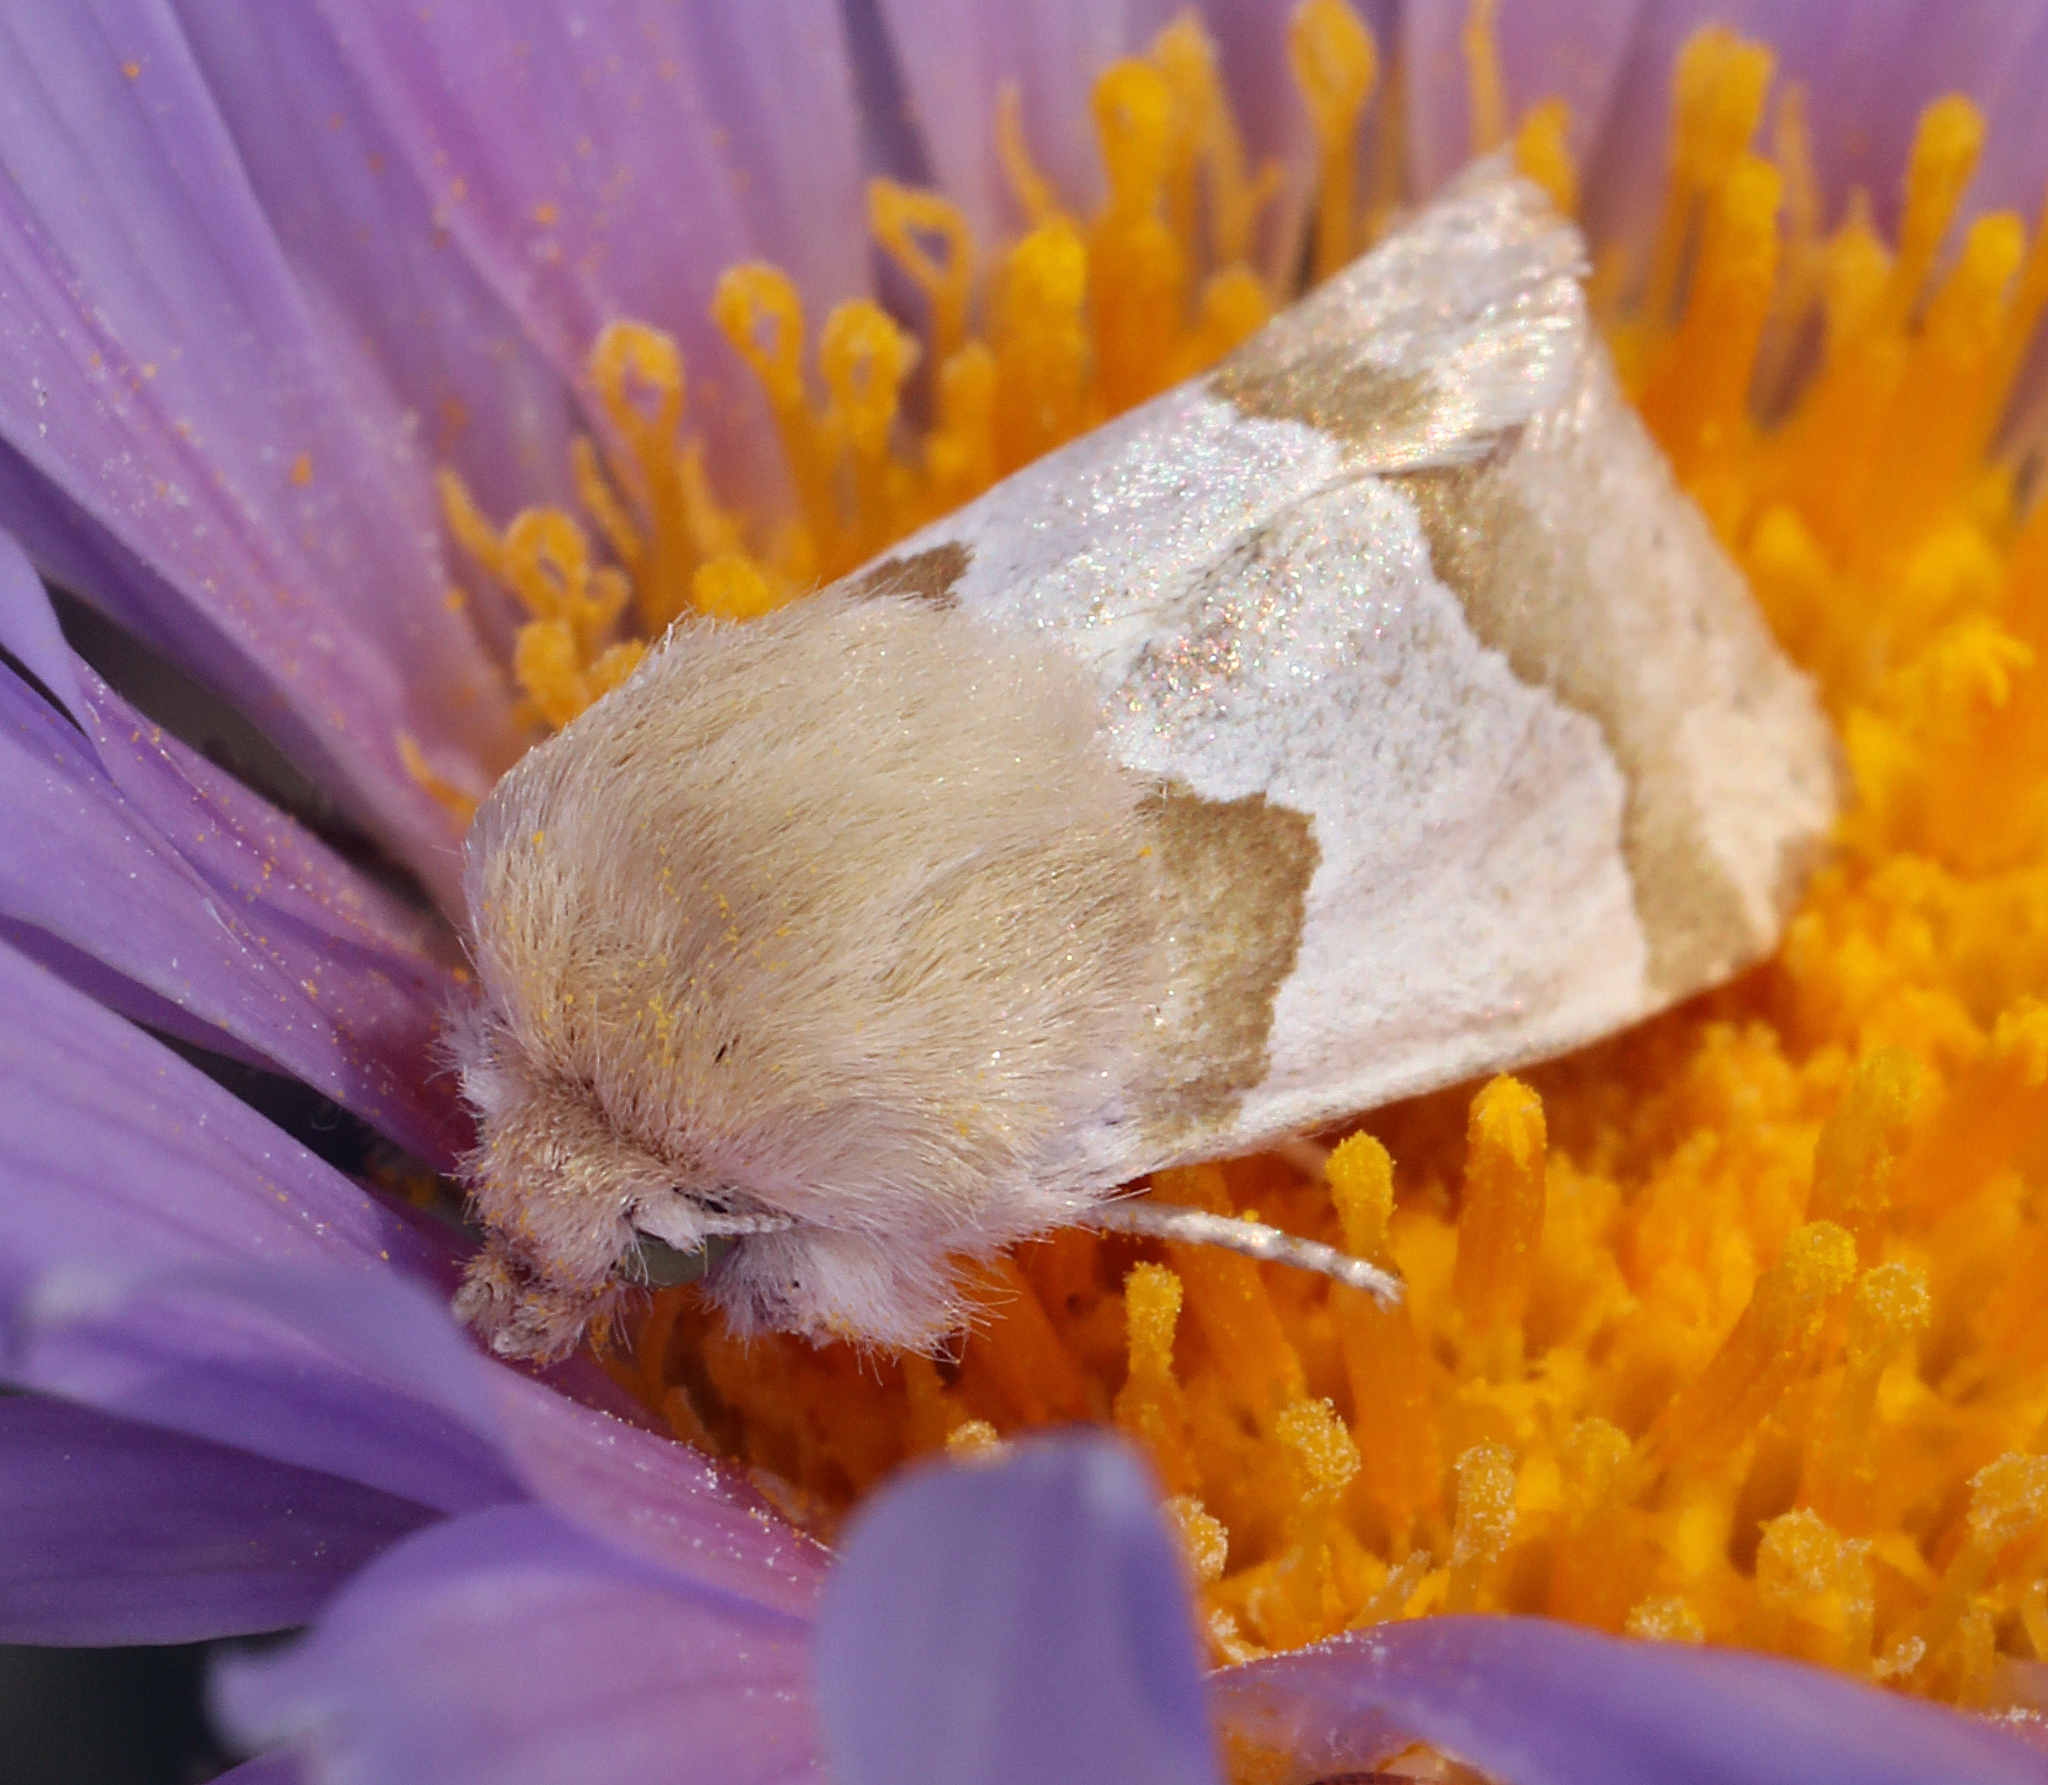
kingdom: Animalia
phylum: Arthropoda
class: Insecta
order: Lepidoptera
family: Noctuidae
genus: Schinia
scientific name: Schinia ligeae
